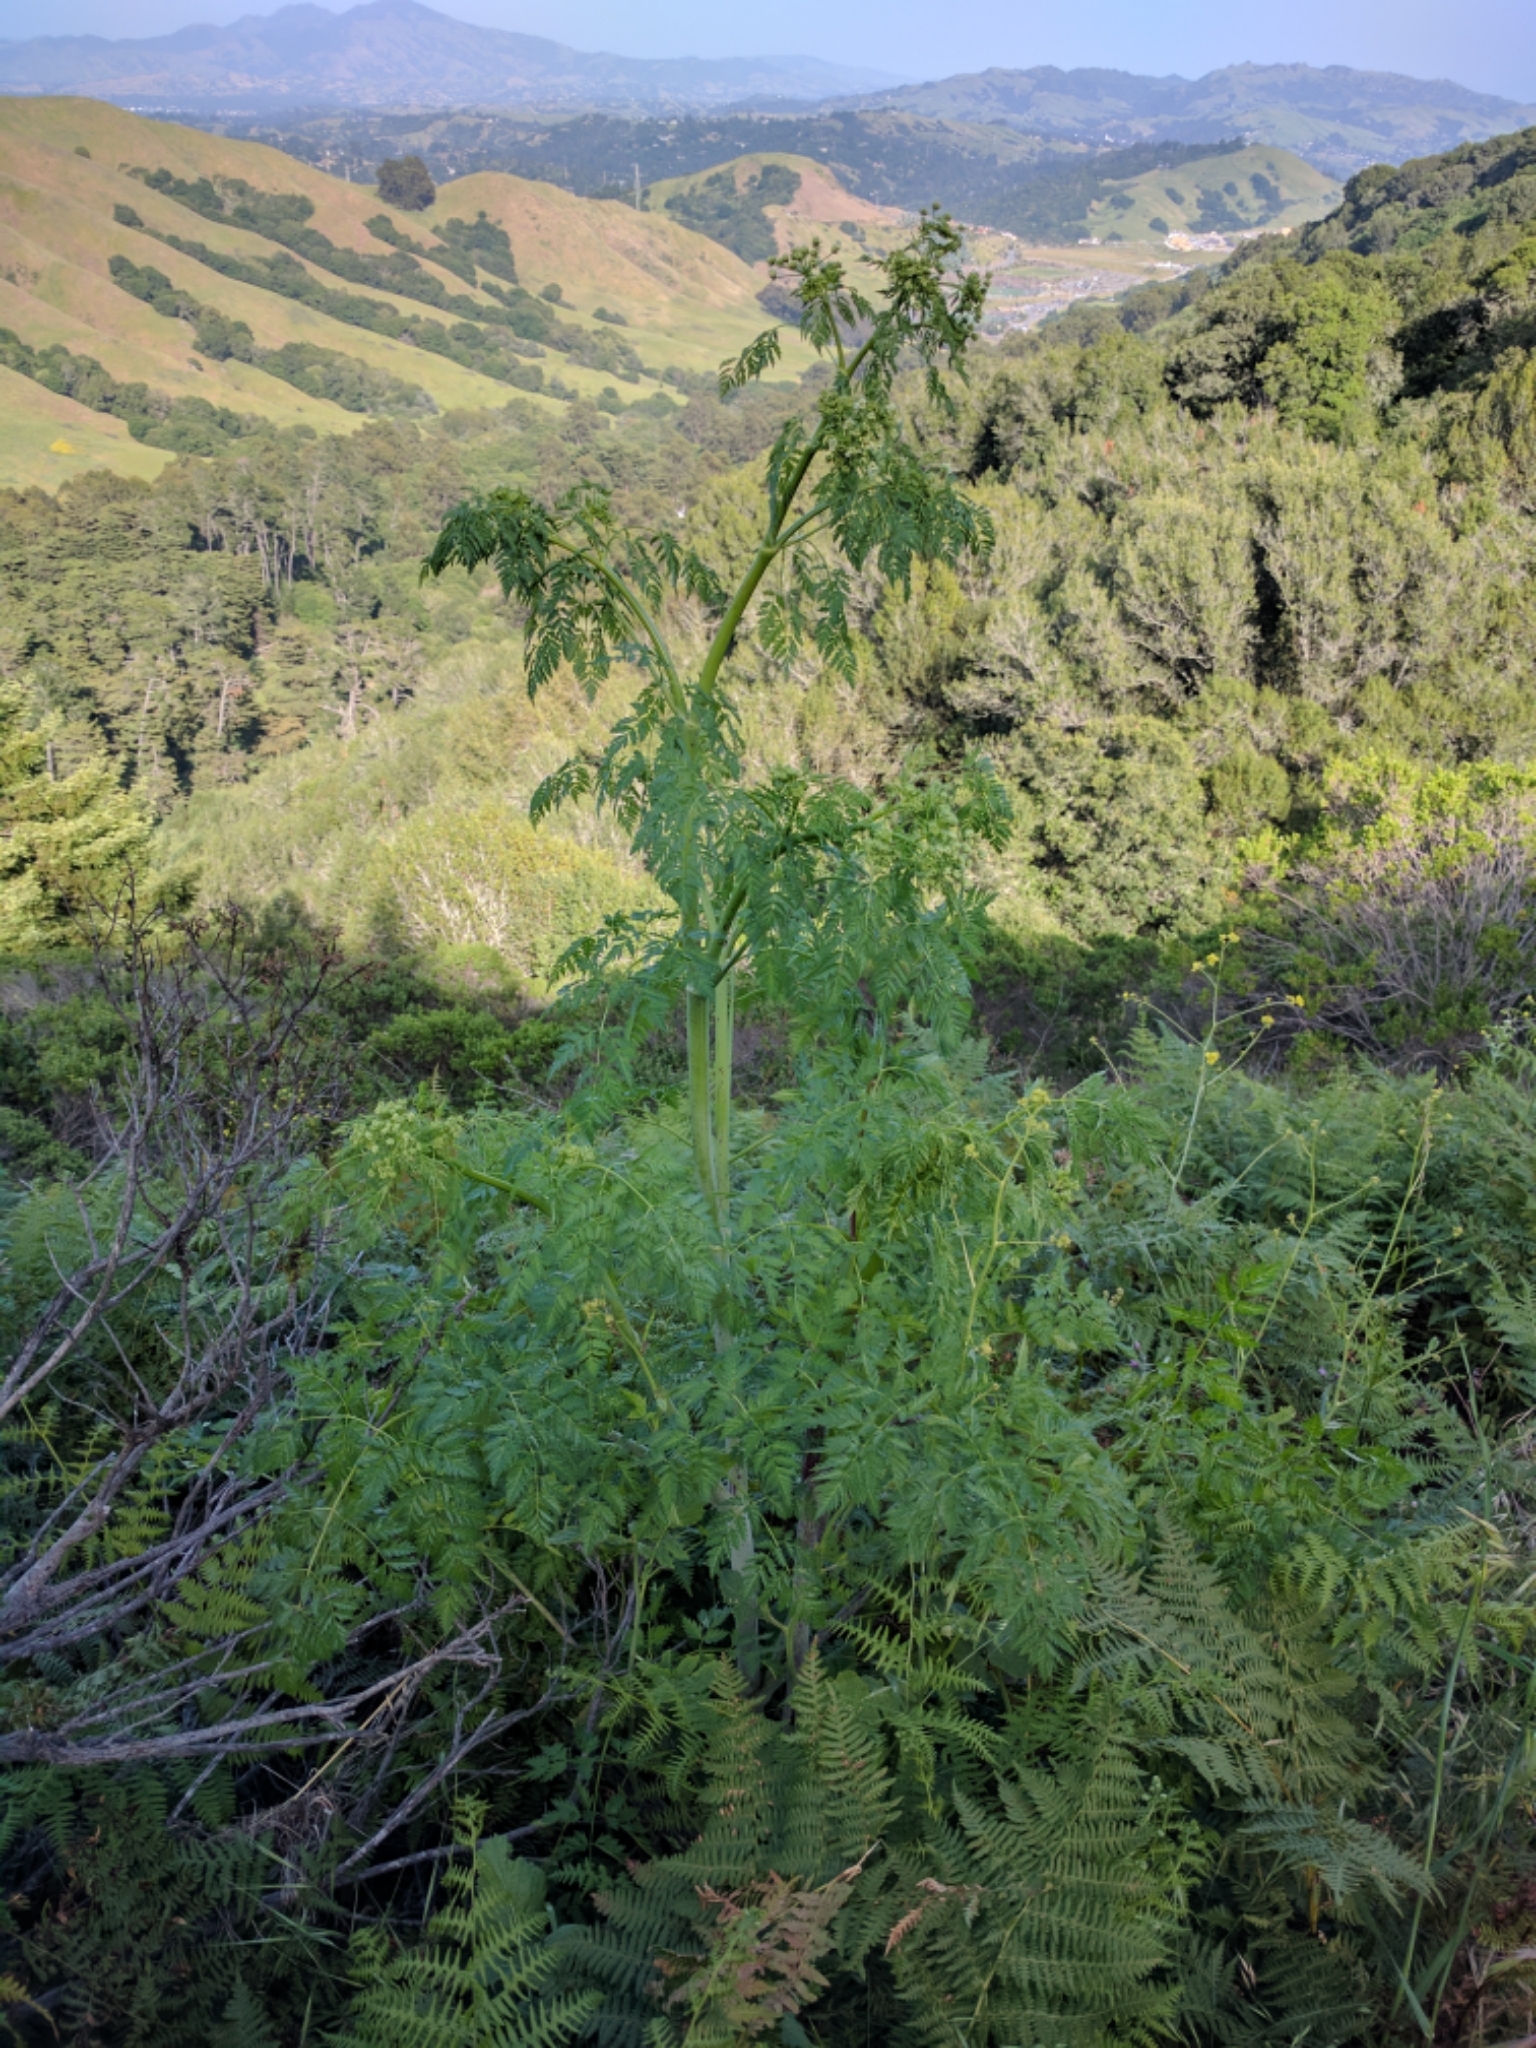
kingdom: Plantae
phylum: Tracheophyta
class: Magnoliopsida
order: Apiales
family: Apiaceae
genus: Conium
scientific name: Conium maculatum
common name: Hemlock
